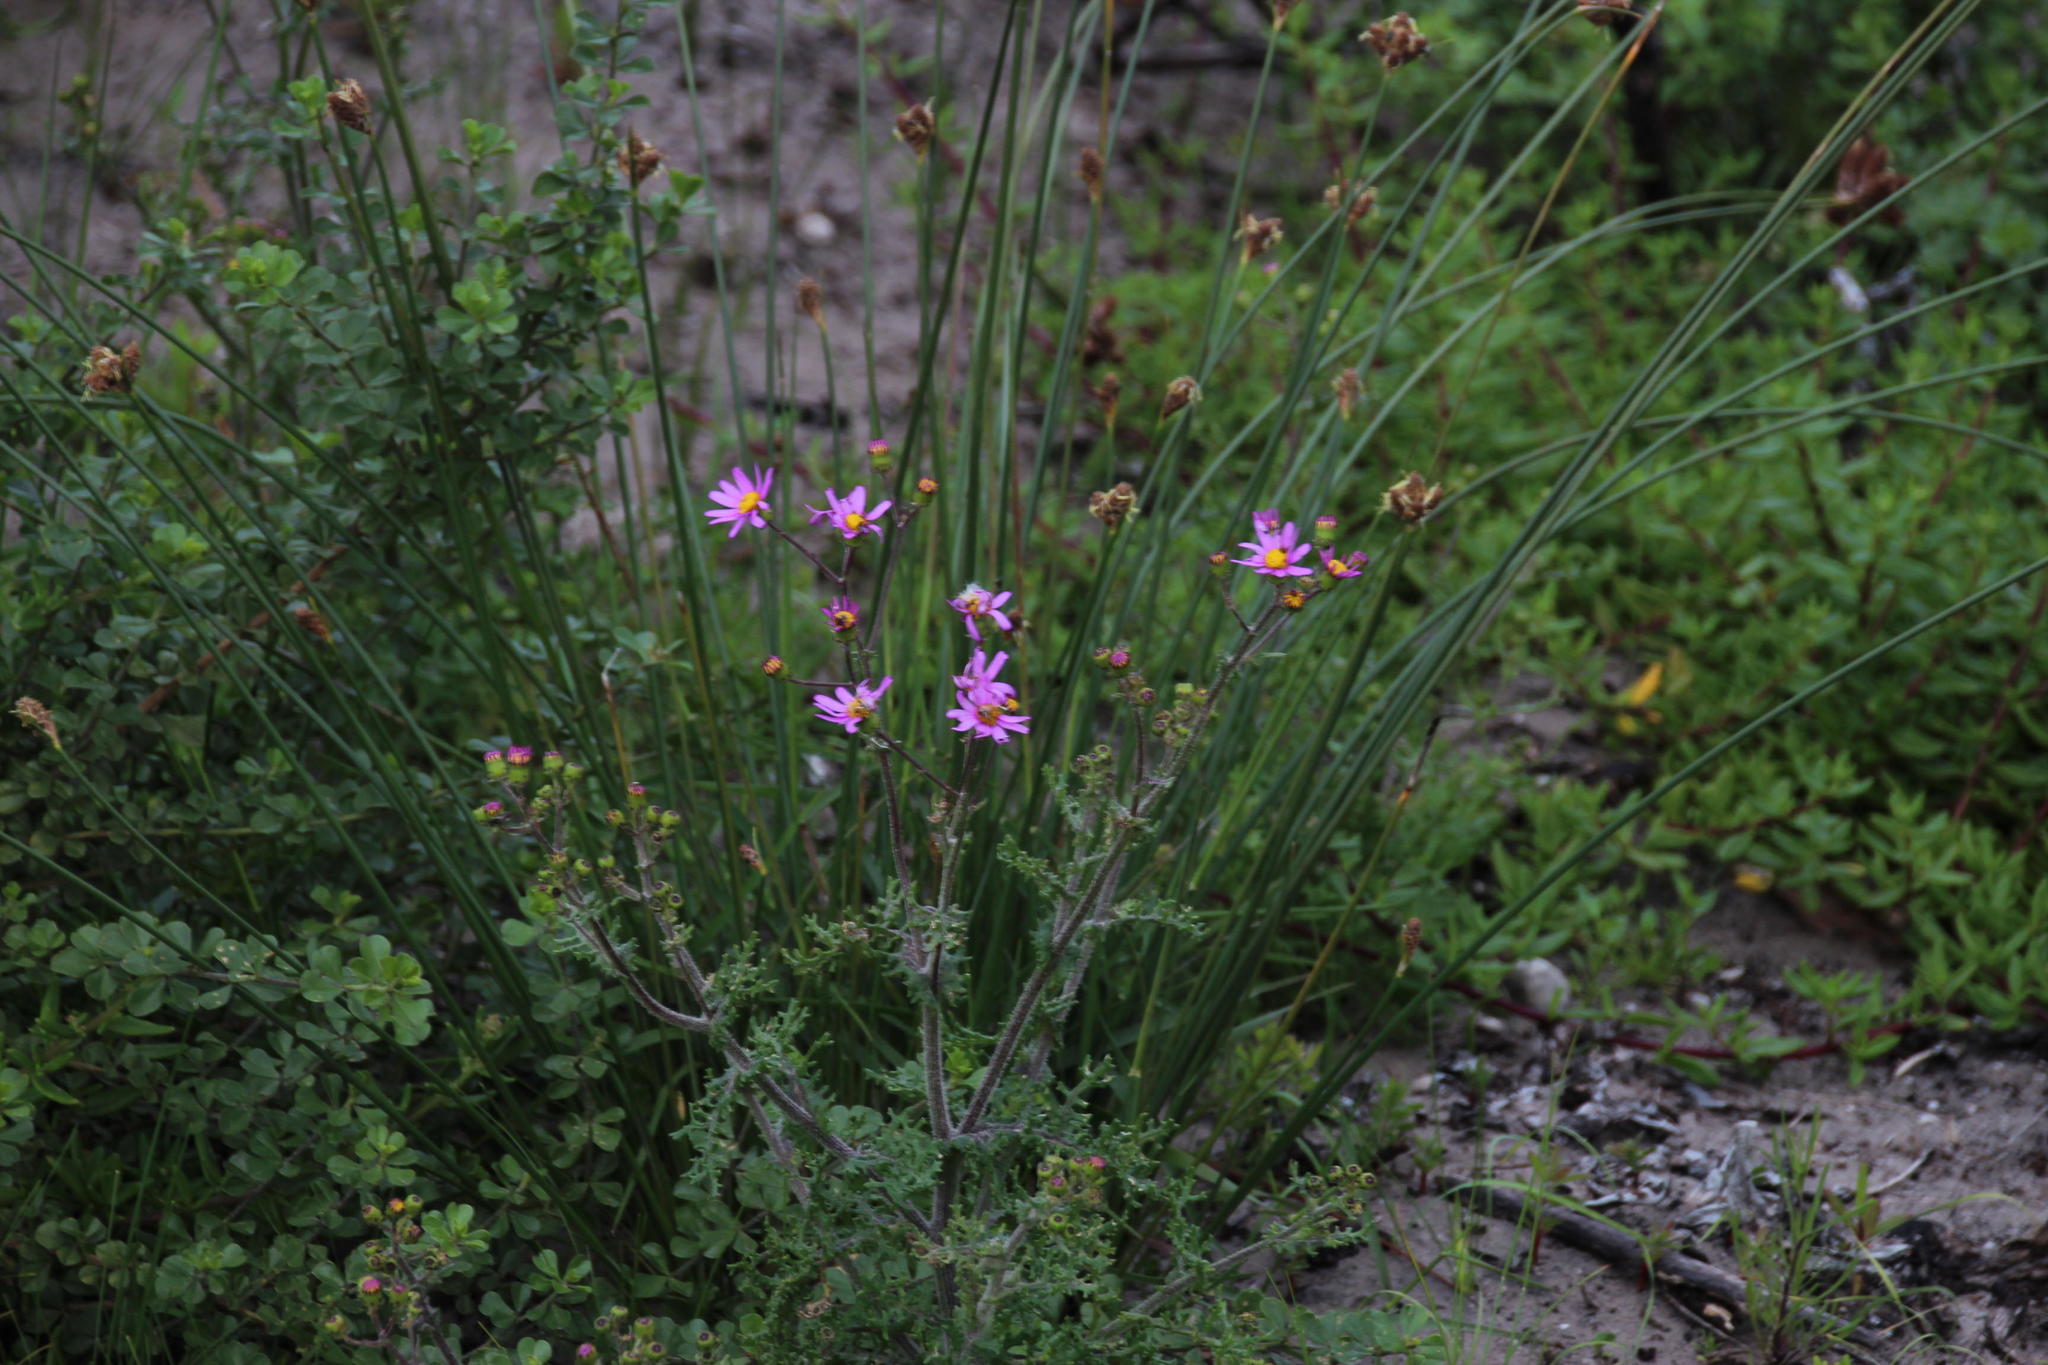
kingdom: Plantae
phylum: Tracheophyta
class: Magnoliopsida
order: Asterales
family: Asteraceae
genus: Senecio
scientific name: Senecio elegans
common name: Purple groundsel
